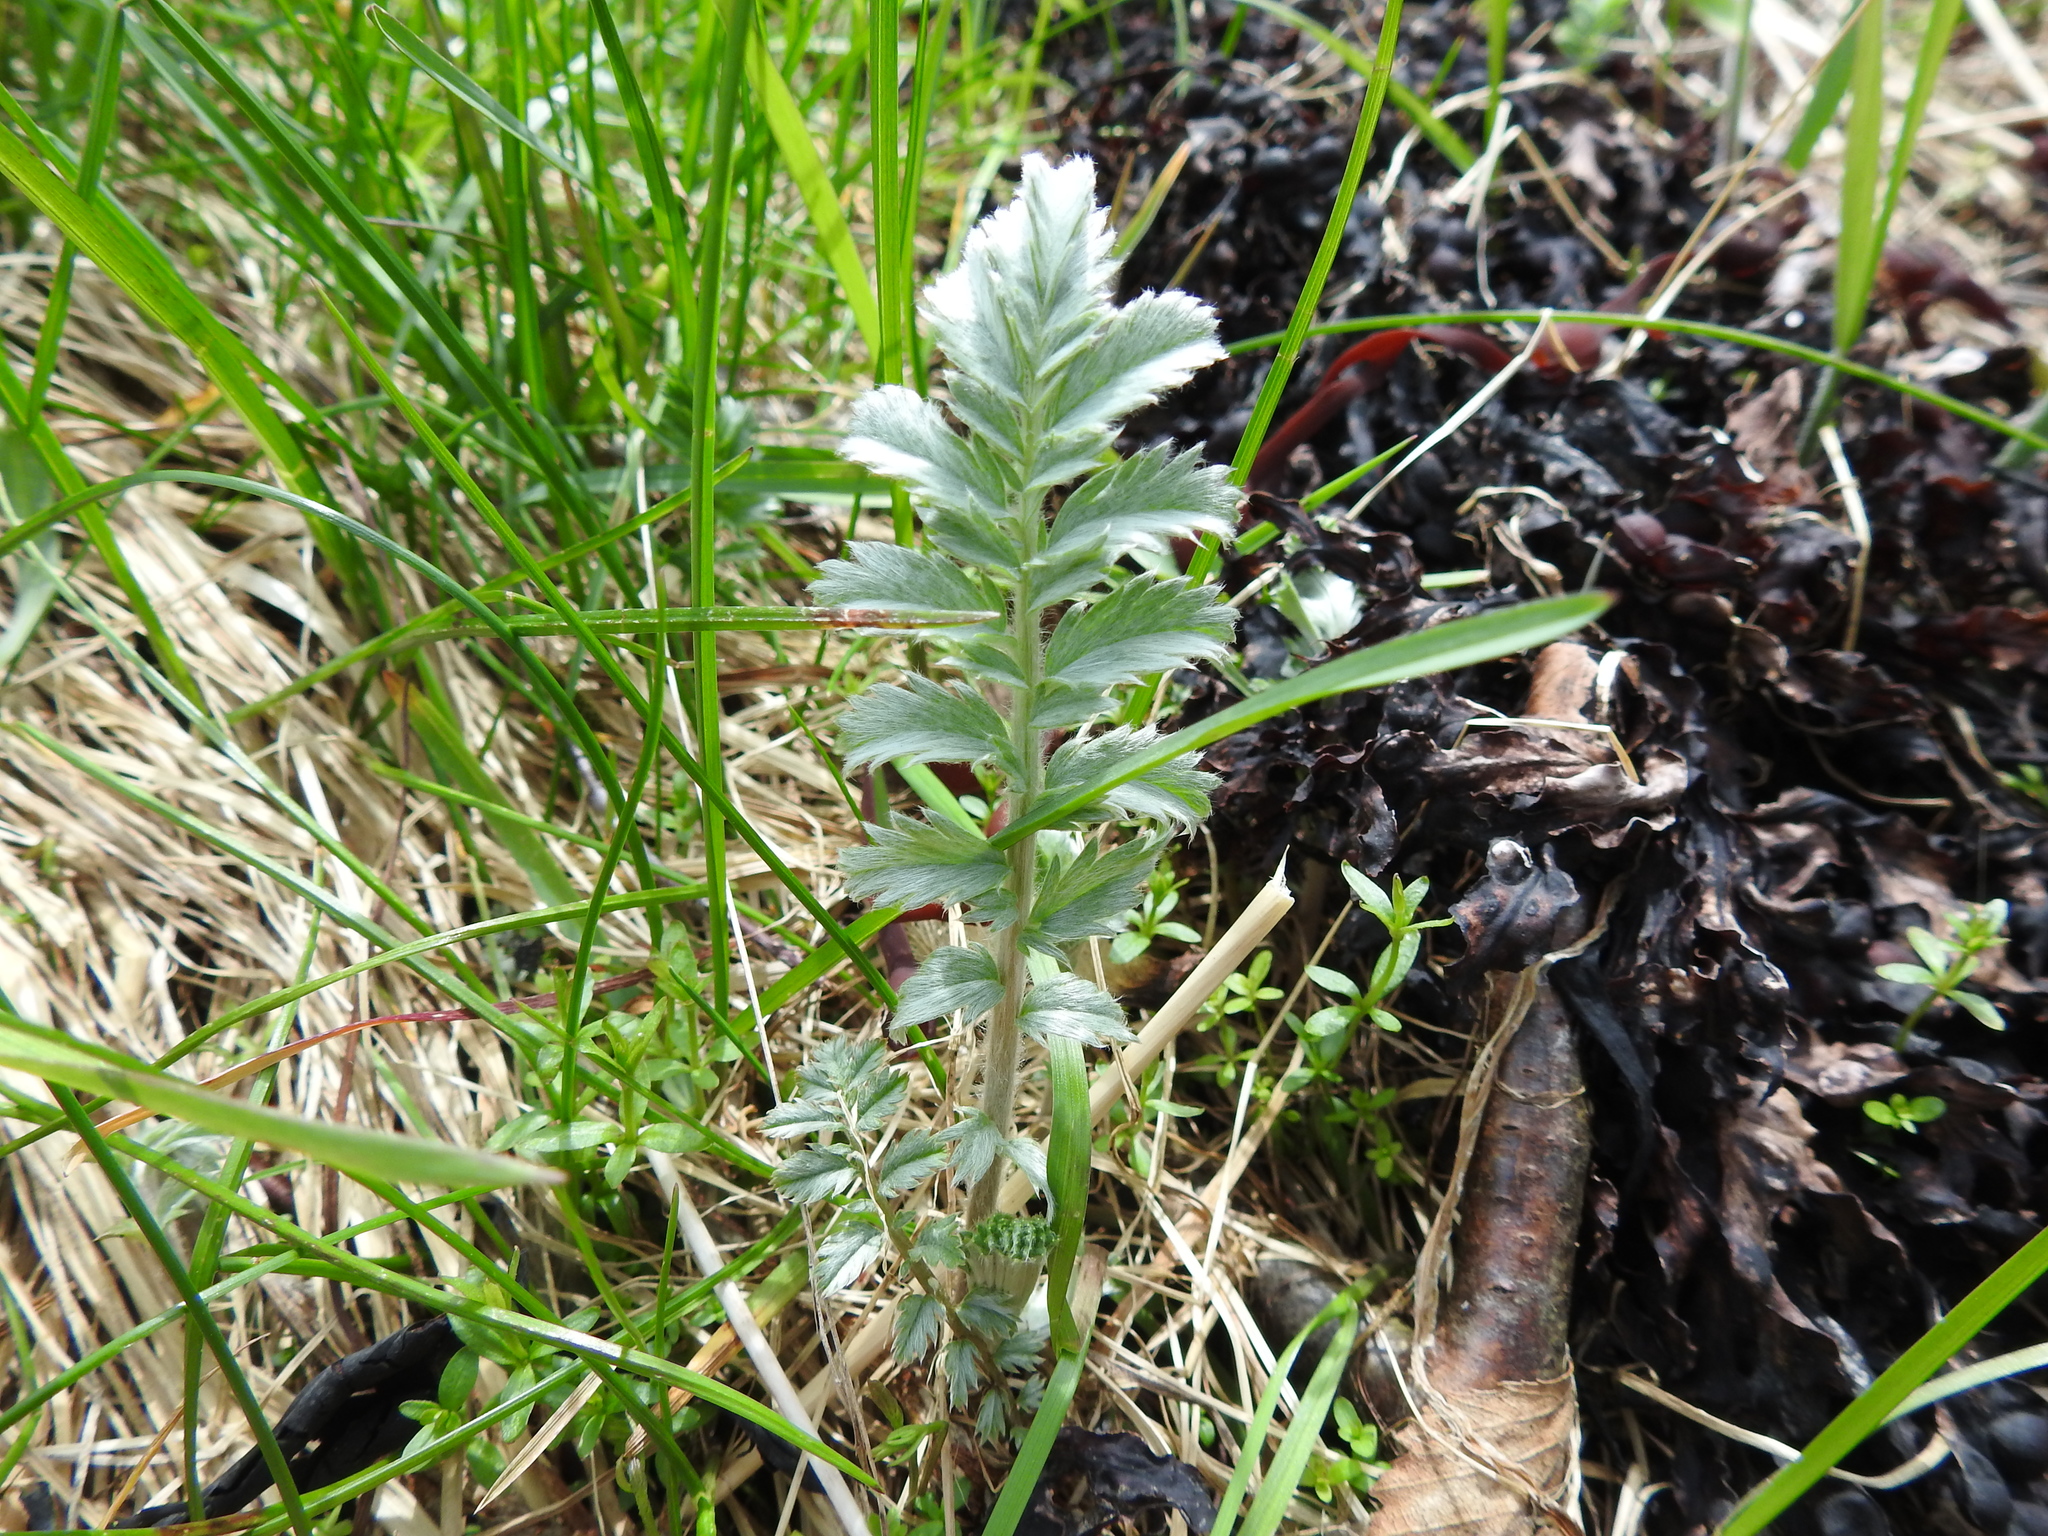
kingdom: Plantae
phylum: Tracheophyta
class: Magnoliopsida
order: Rosales
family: Rosaceae
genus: Argentina
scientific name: Argentina anserina
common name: Common silverweed
